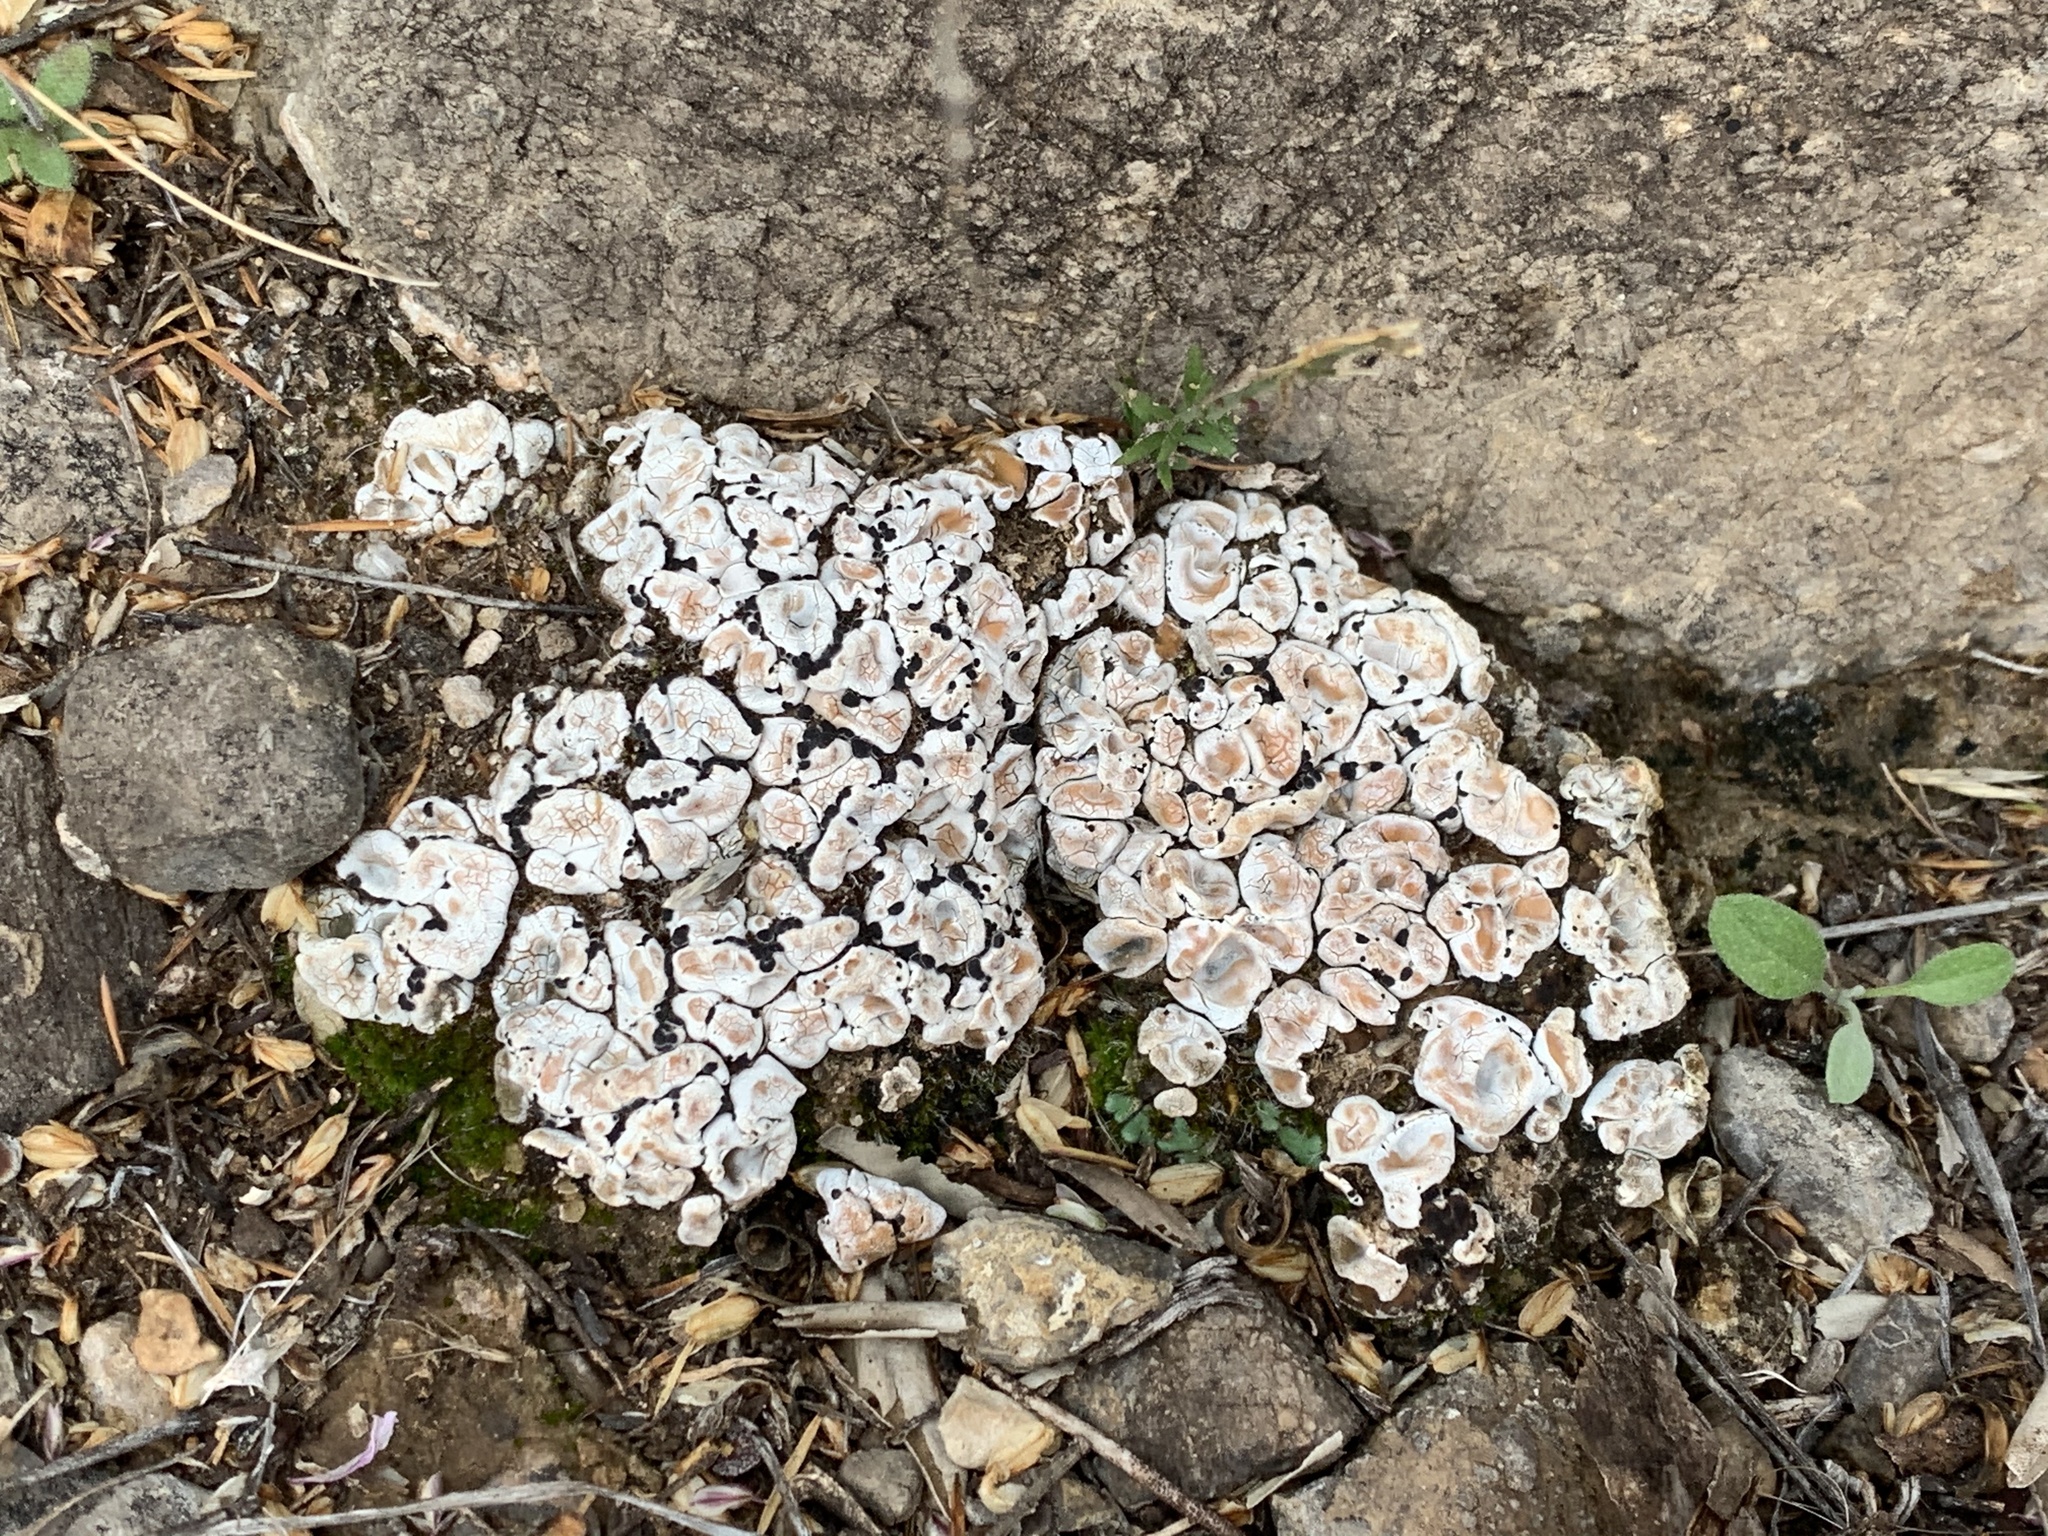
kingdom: Fungi
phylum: Ascomycota
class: Lecanoromycetes
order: Lecanorales
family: Psoraceae
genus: Psora
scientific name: Psora crenata
